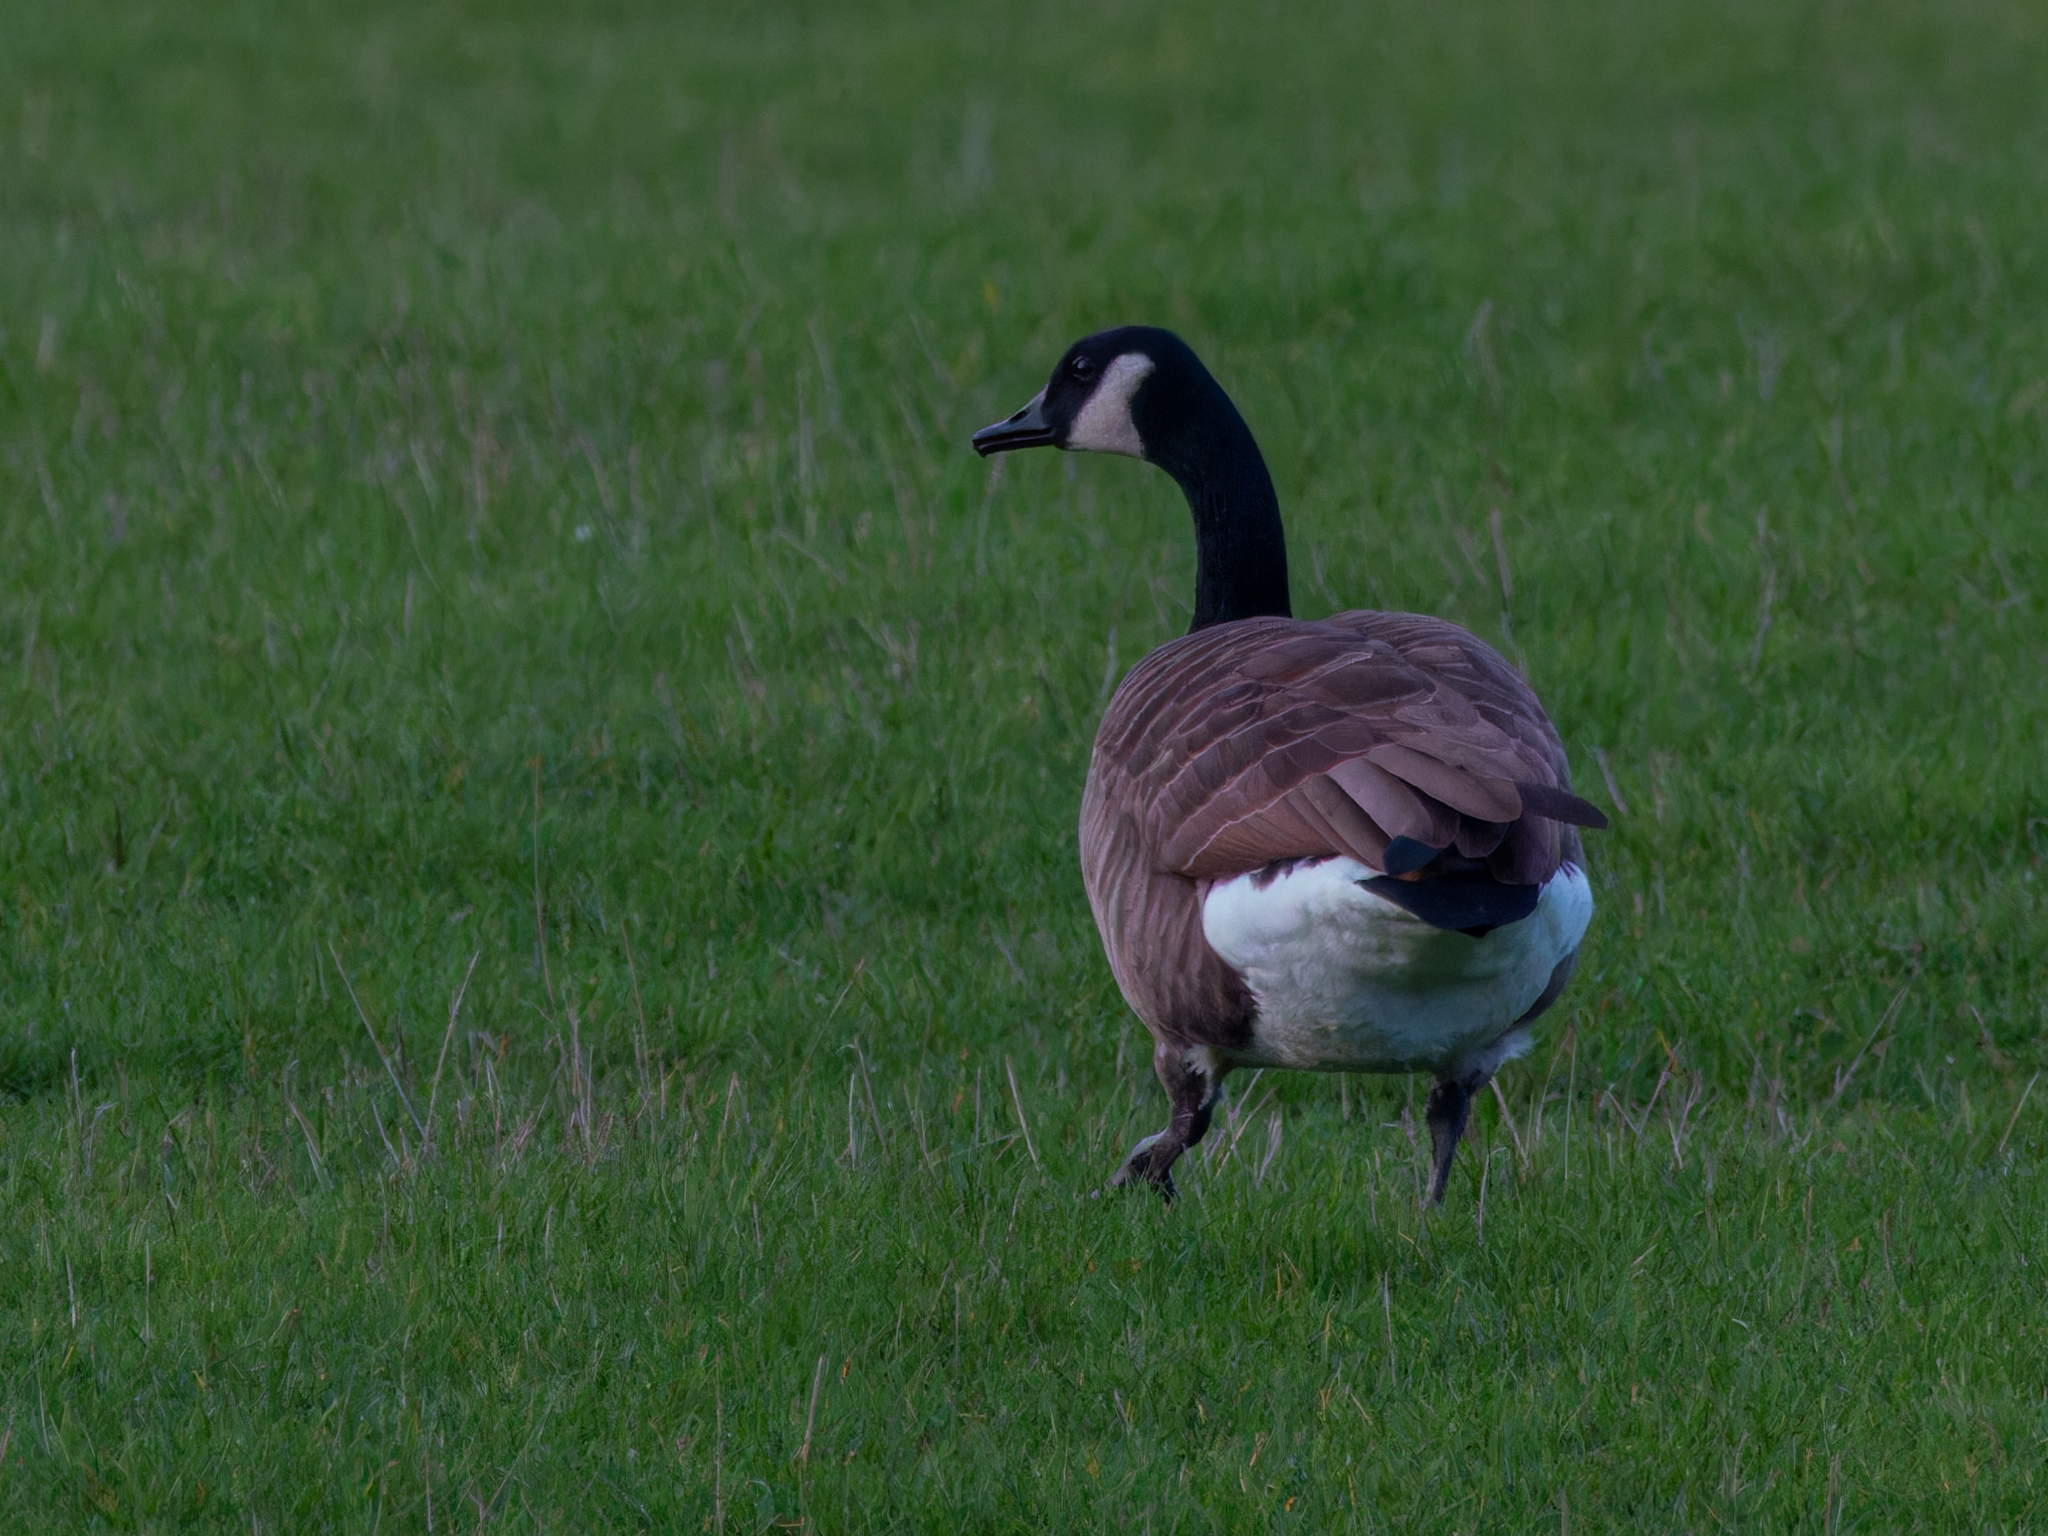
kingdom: Animalia
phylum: Chordata
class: Aves
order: Anseriformes
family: Anatidae
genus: Branta
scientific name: Branta canadensis
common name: Canada goose
